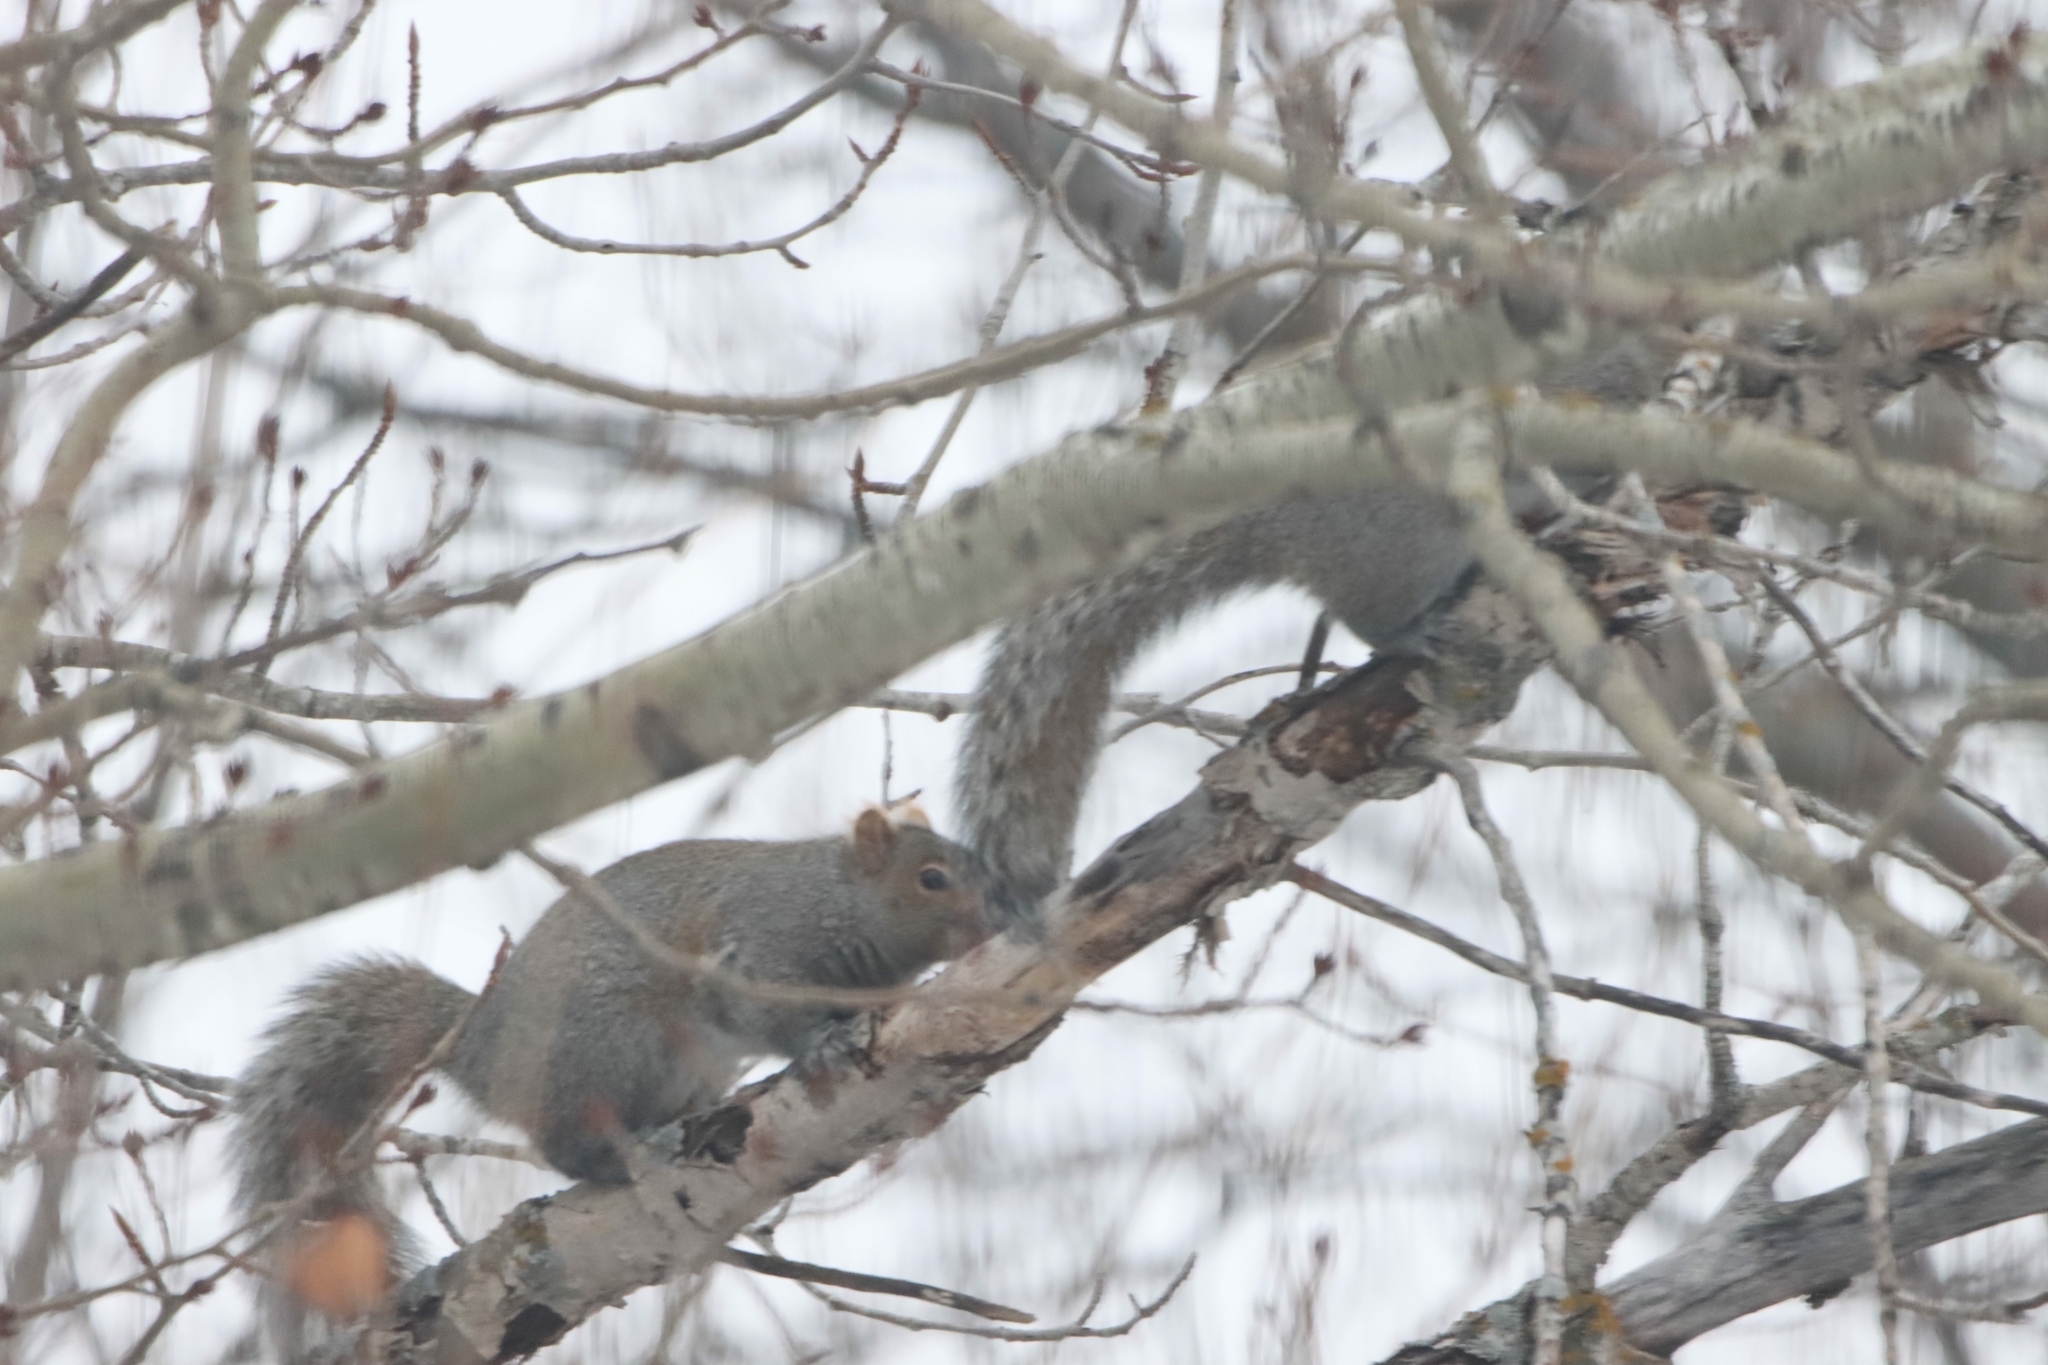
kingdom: Animalia
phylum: Chordata
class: Mammalia
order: Rodentia
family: Sciuridae
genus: Sciurus
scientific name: Sciurus carolinensis
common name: Eastern gray squirrel
